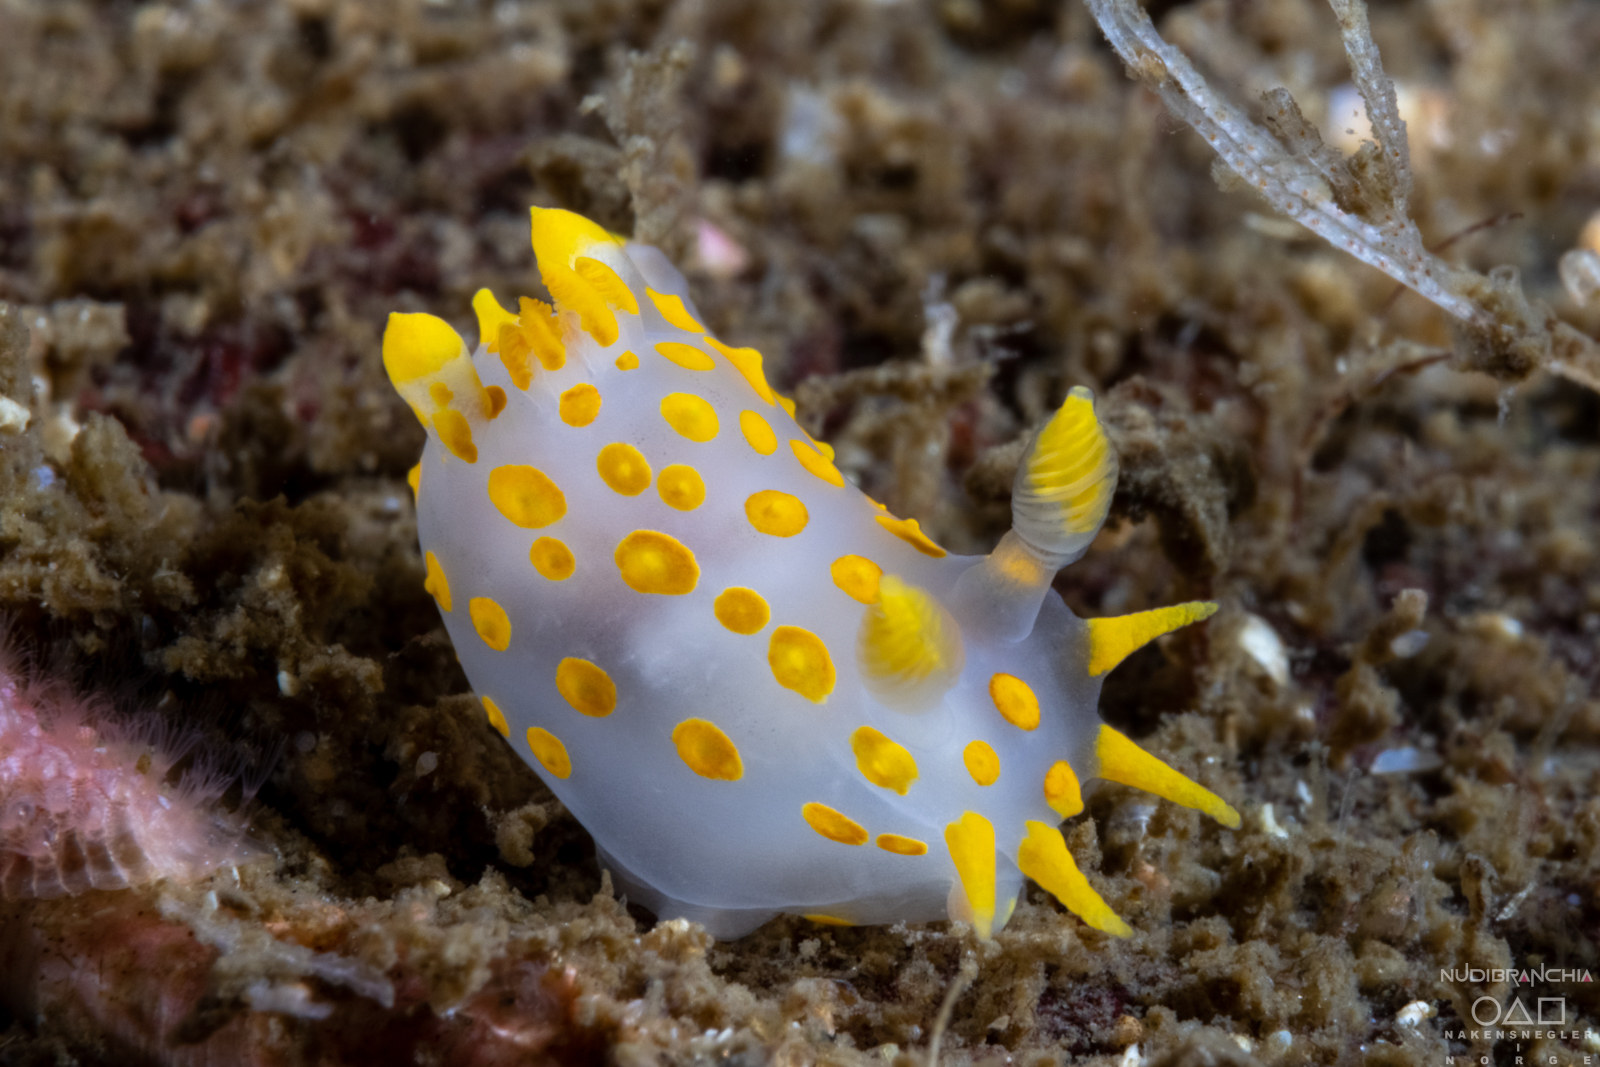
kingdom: Animalia
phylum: Mollusca
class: Gastropoda
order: Nudibranchia
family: Polyceridae
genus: Polycera
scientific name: Polycera quadrilineata
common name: Four-striped polycera
